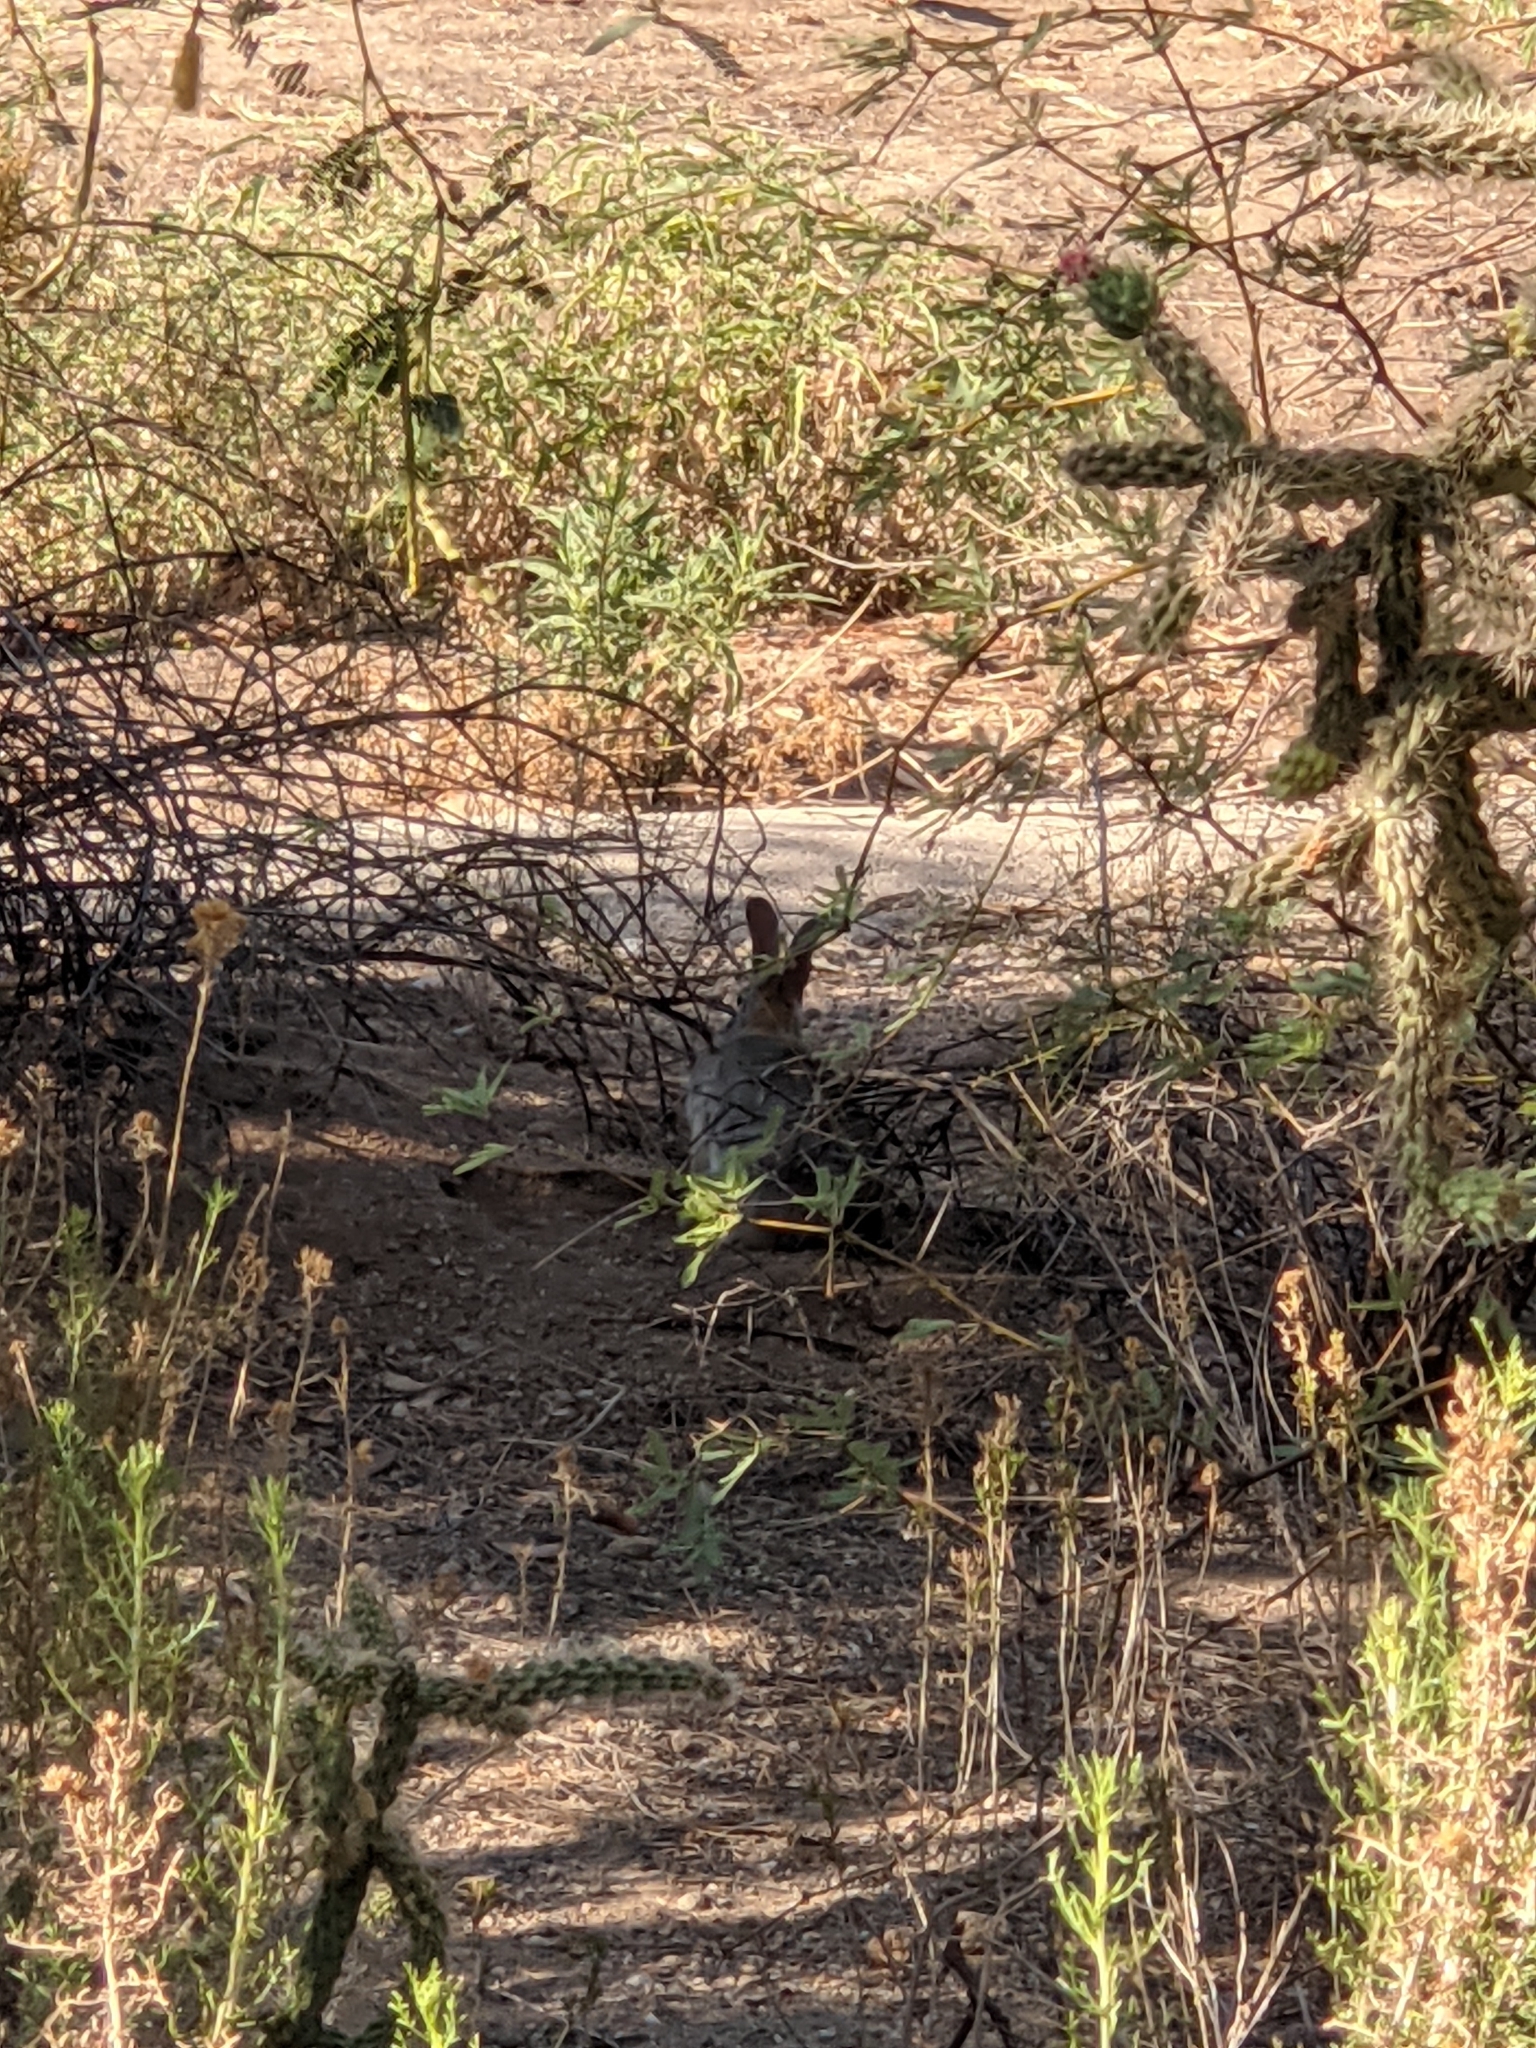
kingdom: Animalia
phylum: Chordata
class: Mammalia
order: Lagomorpha
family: Leporidae
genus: Sylvilagus
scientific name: Sylvilagus audubonii
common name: Desert cottontail
